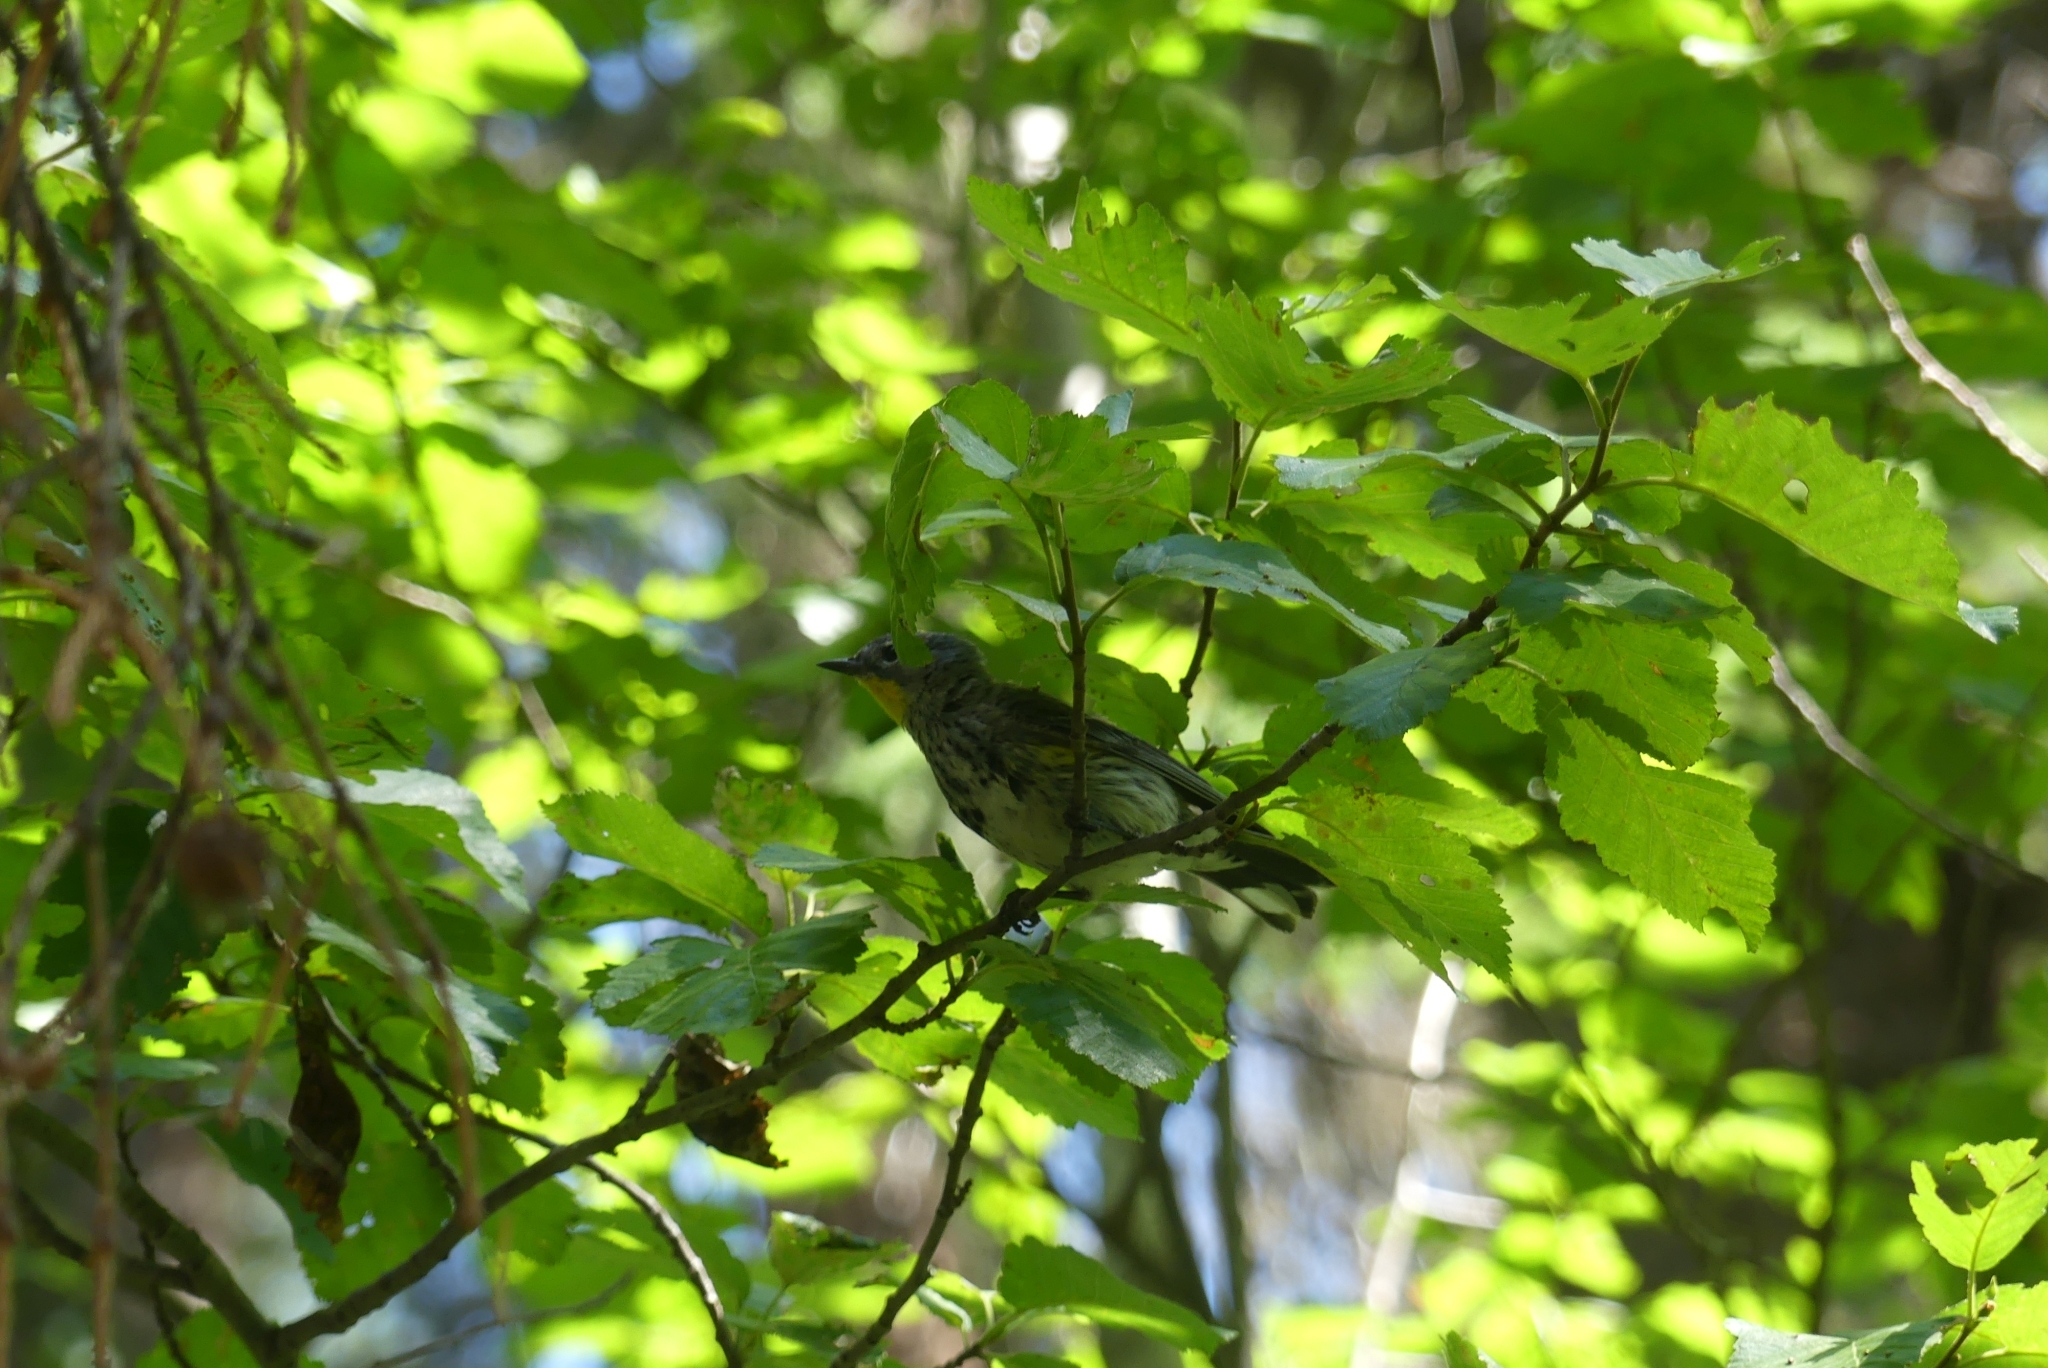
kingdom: Animalia
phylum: Chordata
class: Aves
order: Passeriformes
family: Parulidae
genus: Setophaga
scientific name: Setophaga auduboni
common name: Audubon's warbler
